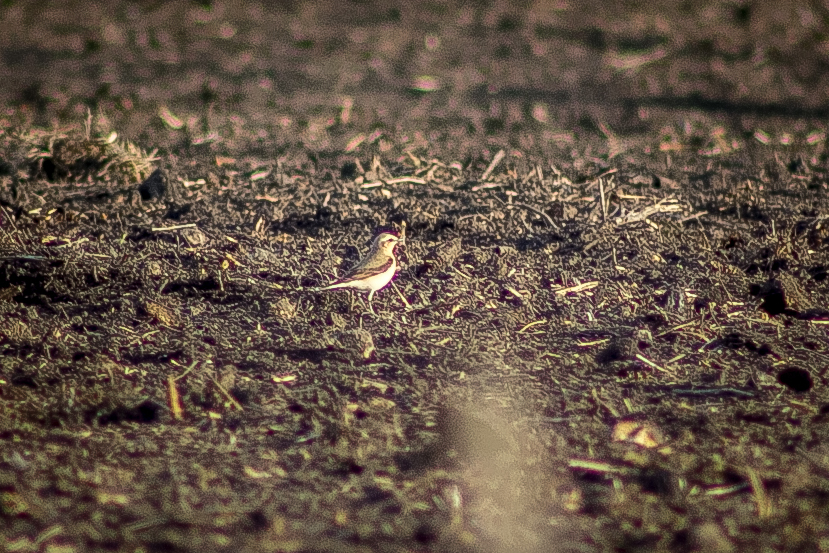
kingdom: Animalia
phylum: Chordata
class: Aves
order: Passeriformes
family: Muscicapidae
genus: Oenanthe
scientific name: Oenanthe oenanthe
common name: Northern wheatear
